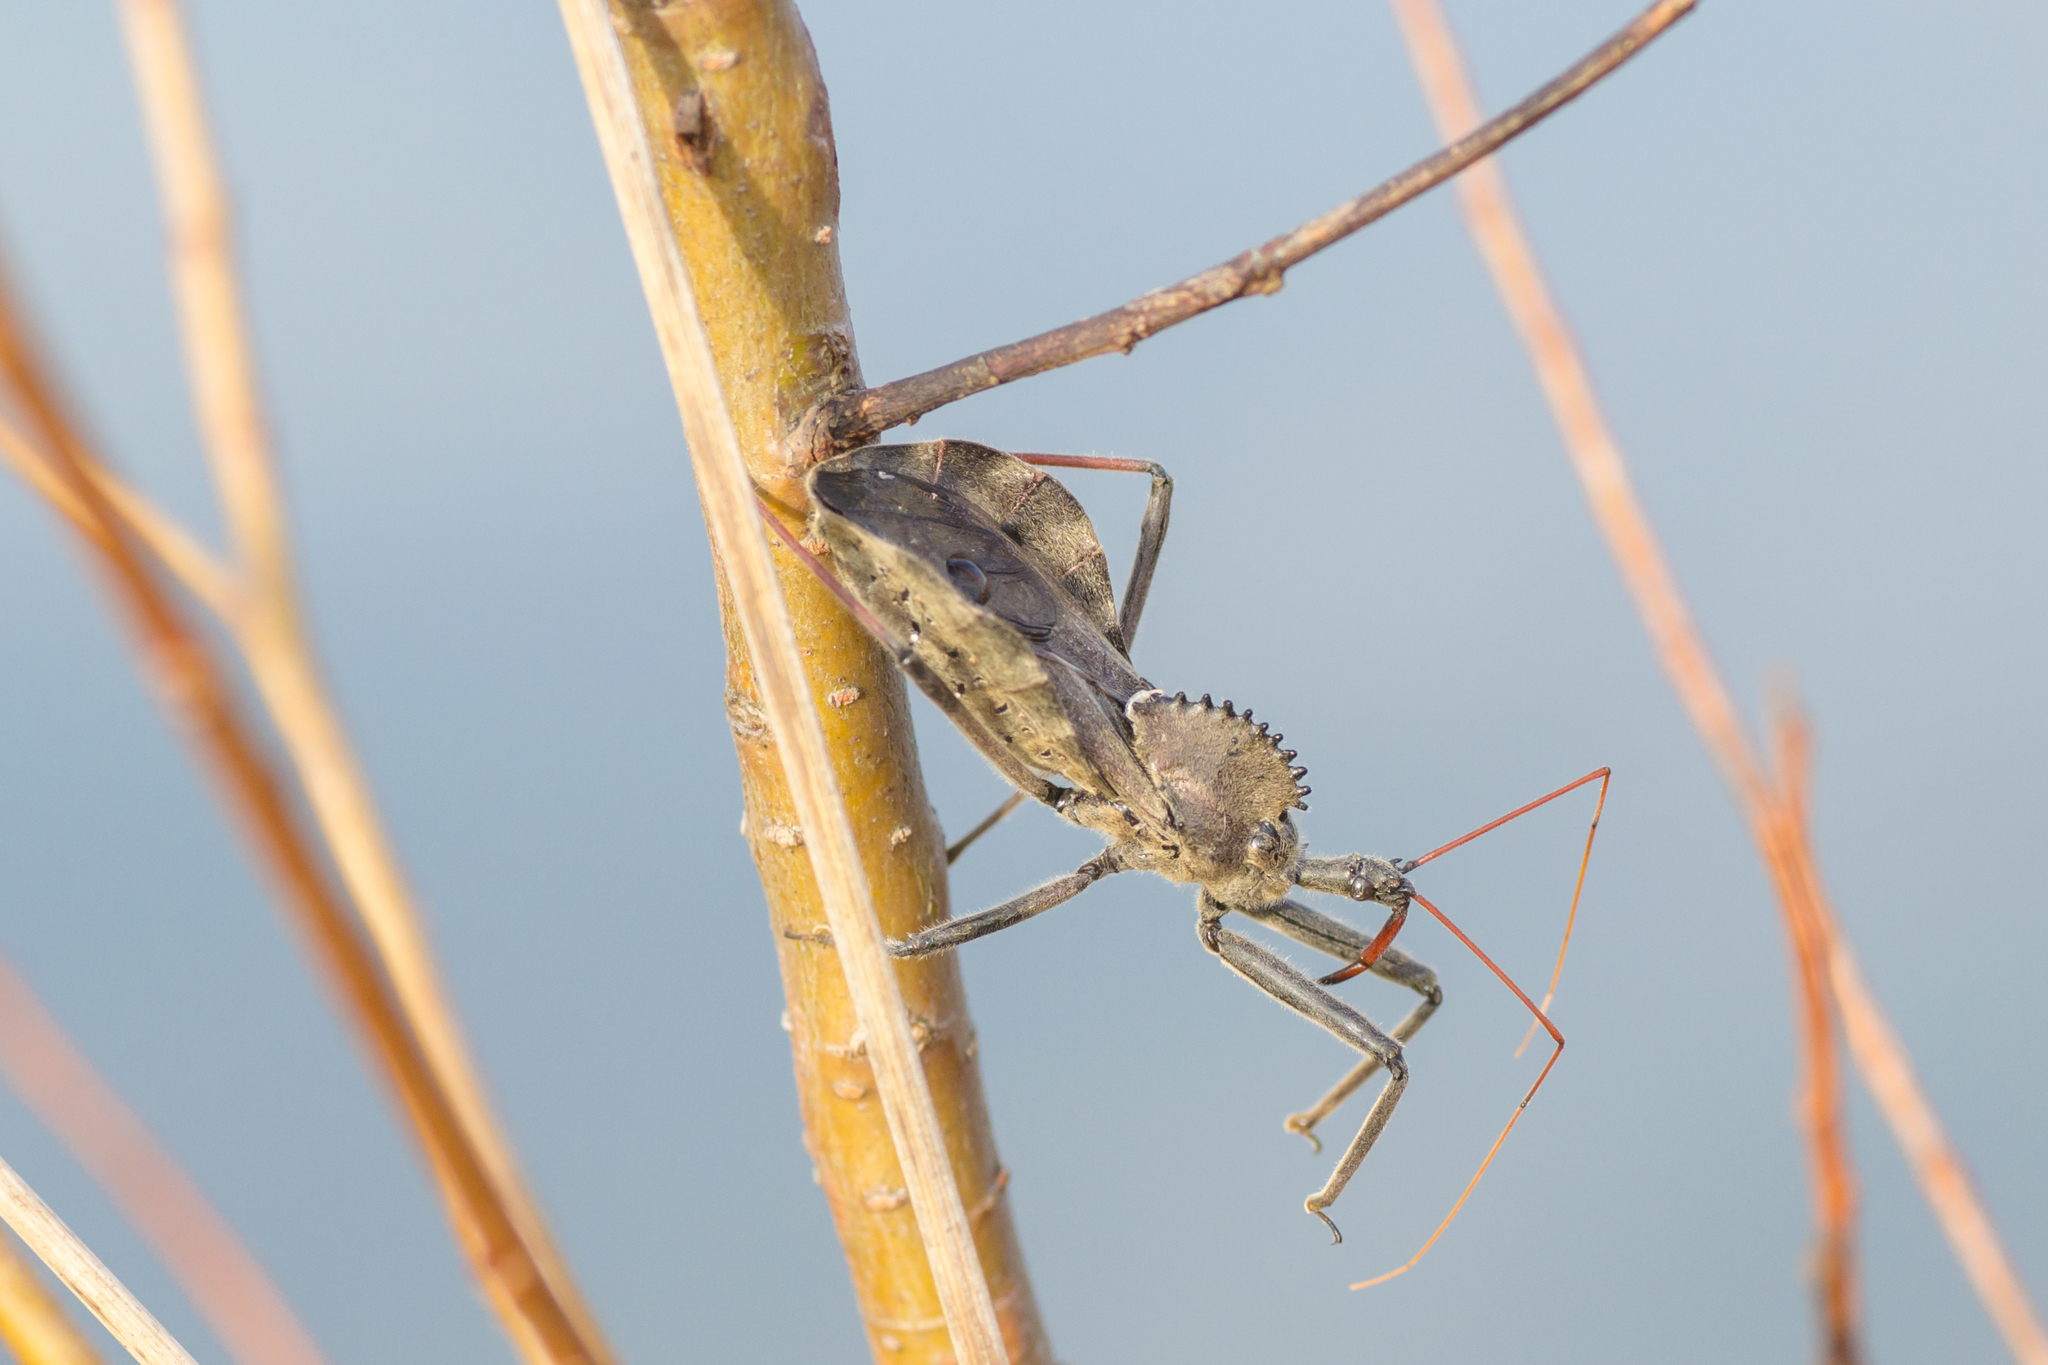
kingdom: Animalia
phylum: Arthropoda
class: Insecta
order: Hemiptera
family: Reduviidae
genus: Arilus
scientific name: Arilus cristatus
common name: North american wheel bug
